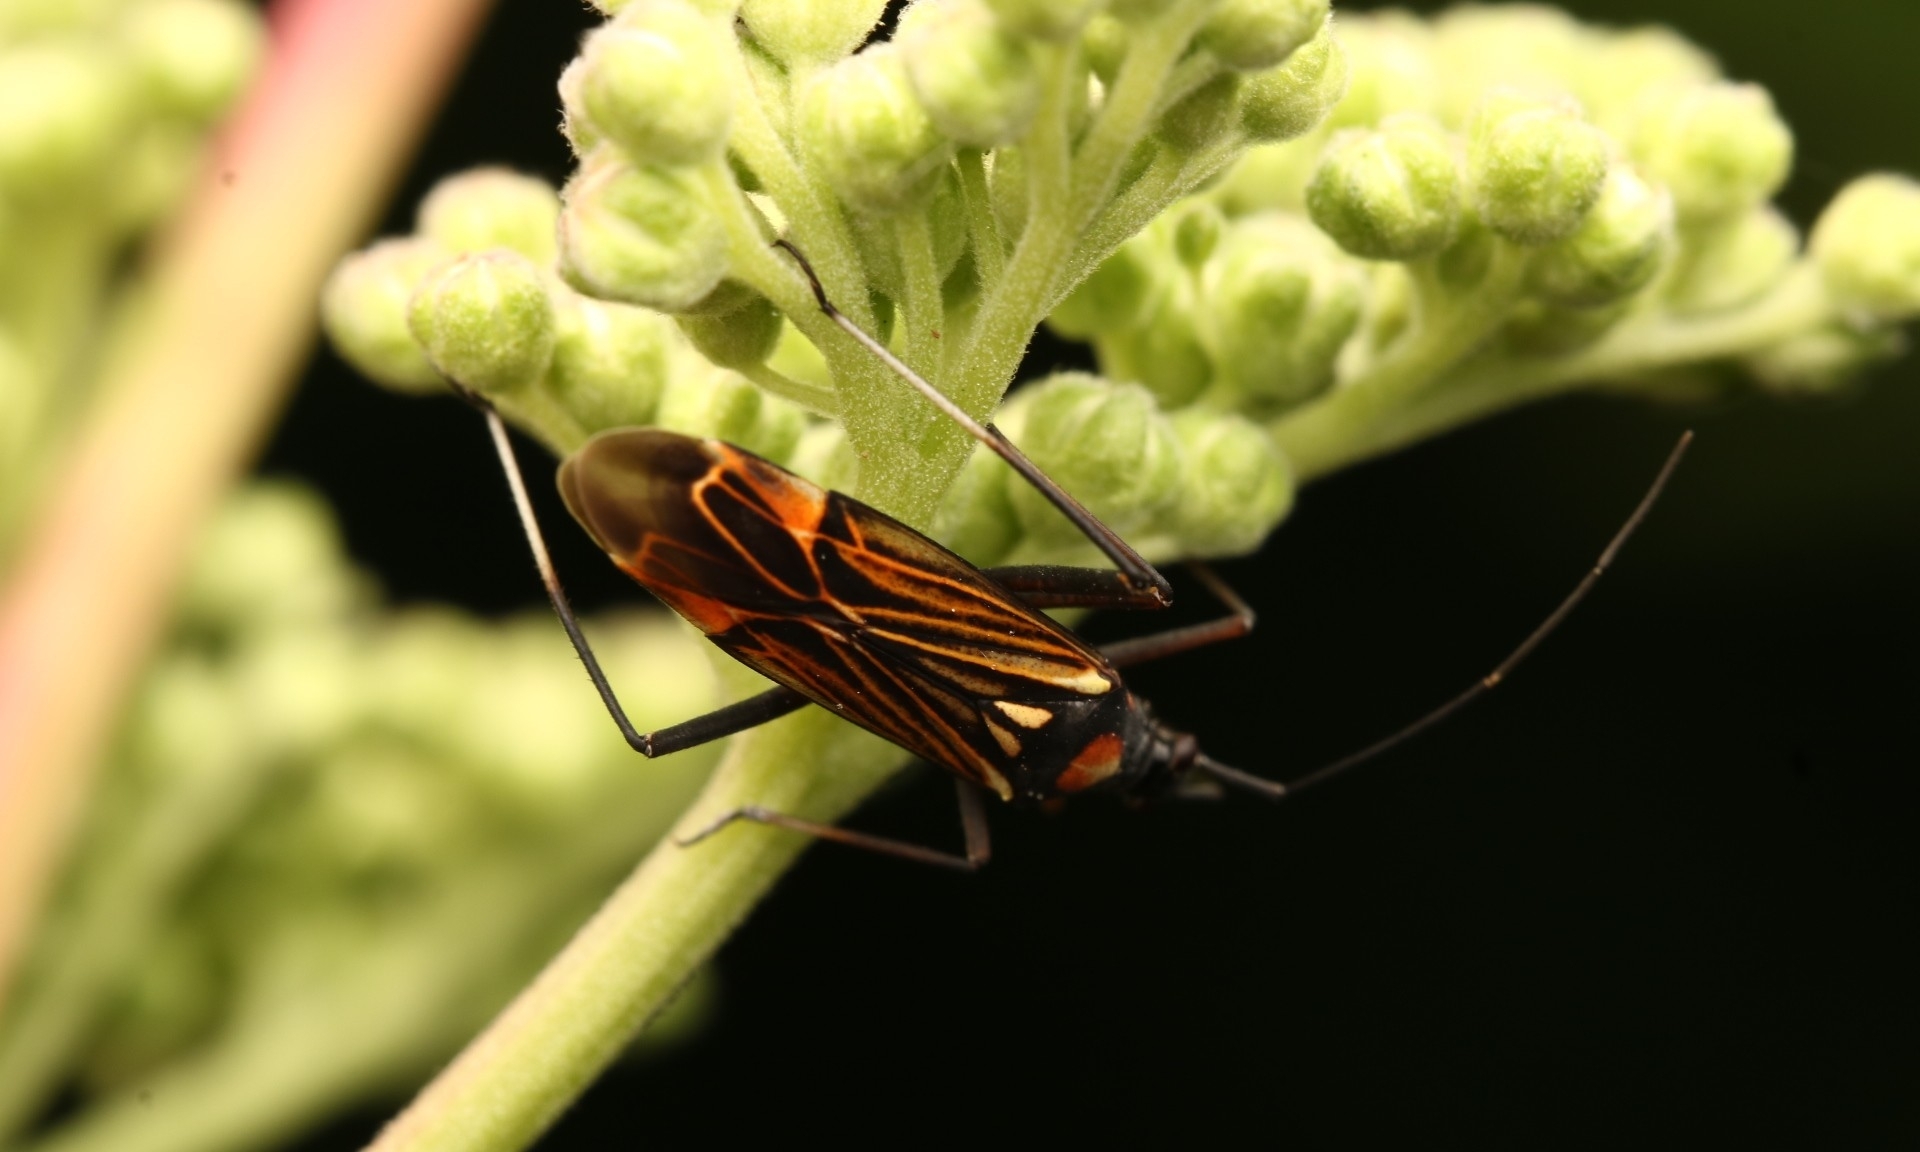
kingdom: Animalia
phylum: Arthropoda
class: Insecta
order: Hemiptera
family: Miridae
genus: Miris
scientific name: Miris striatus
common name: Fine streaked bugkin
